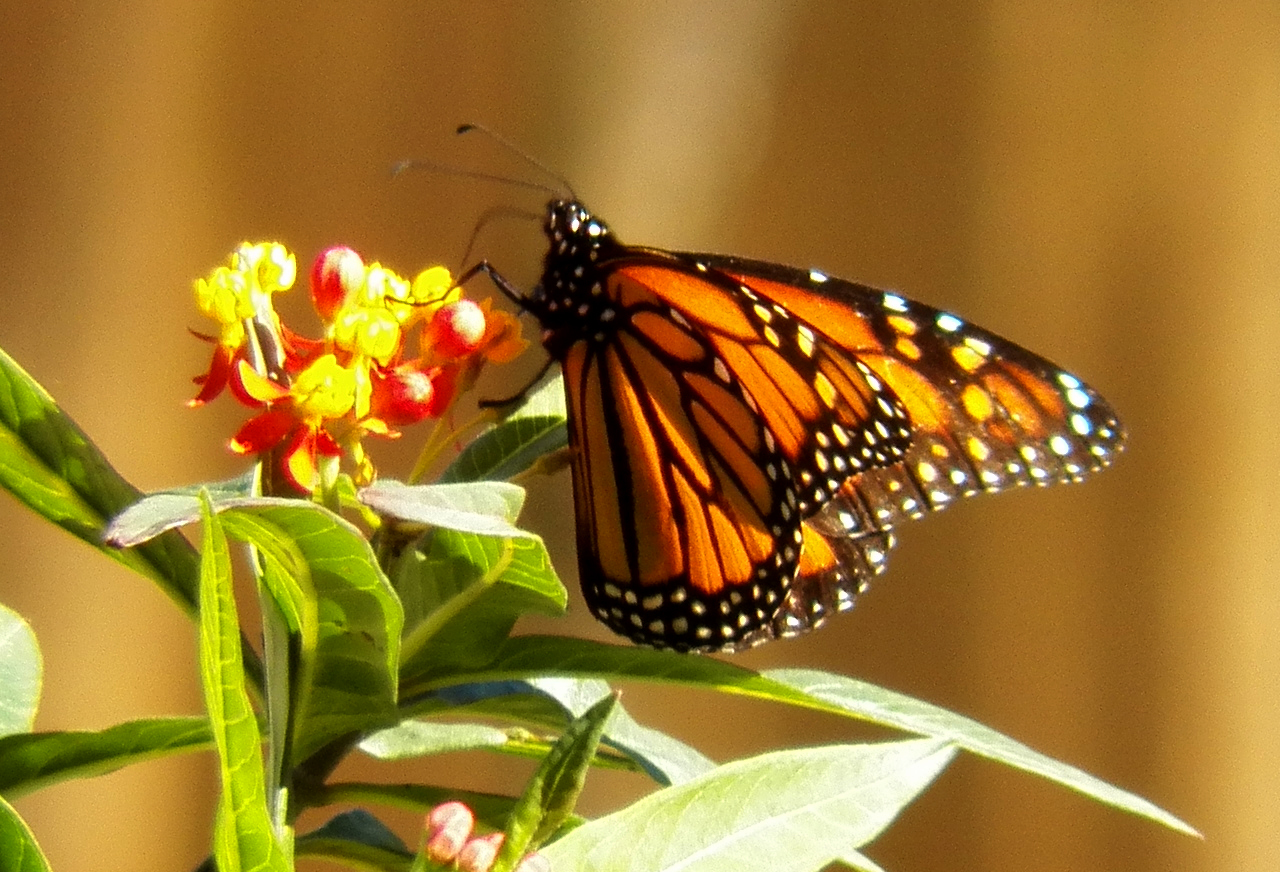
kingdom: Animalia
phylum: Arthropoda
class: Insecta
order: Lepidoptera
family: Nymphalidae
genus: Danaus
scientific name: Danaus plexippus
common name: Monarch
